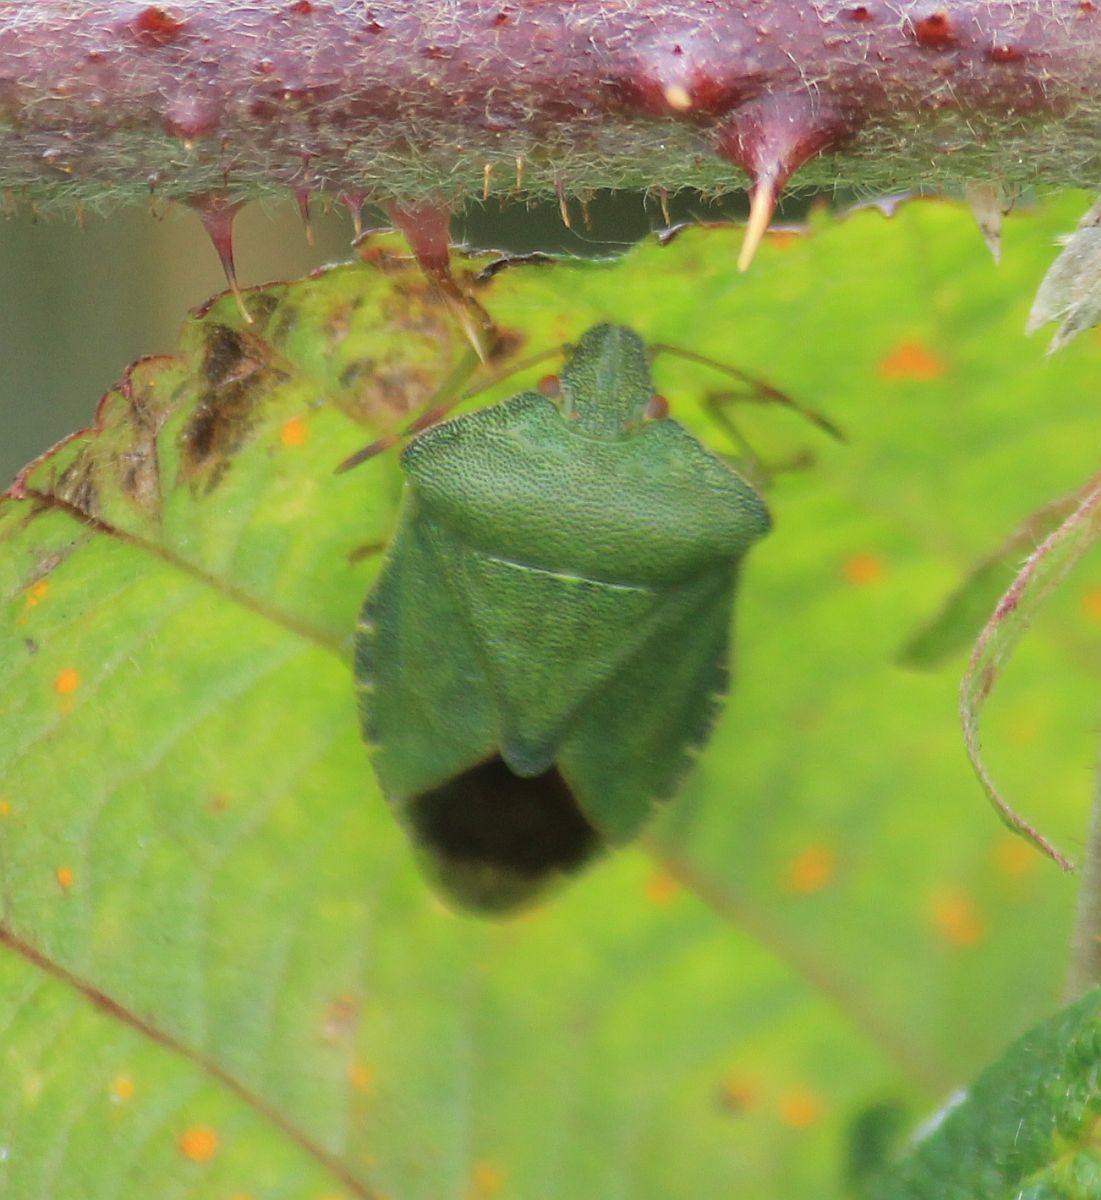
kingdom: Animalia
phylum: Arthropoda
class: Insecta
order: Hemiptera
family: Pentatomidae
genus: Palomena
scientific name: Palomena prasina
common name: Green shieldbug
